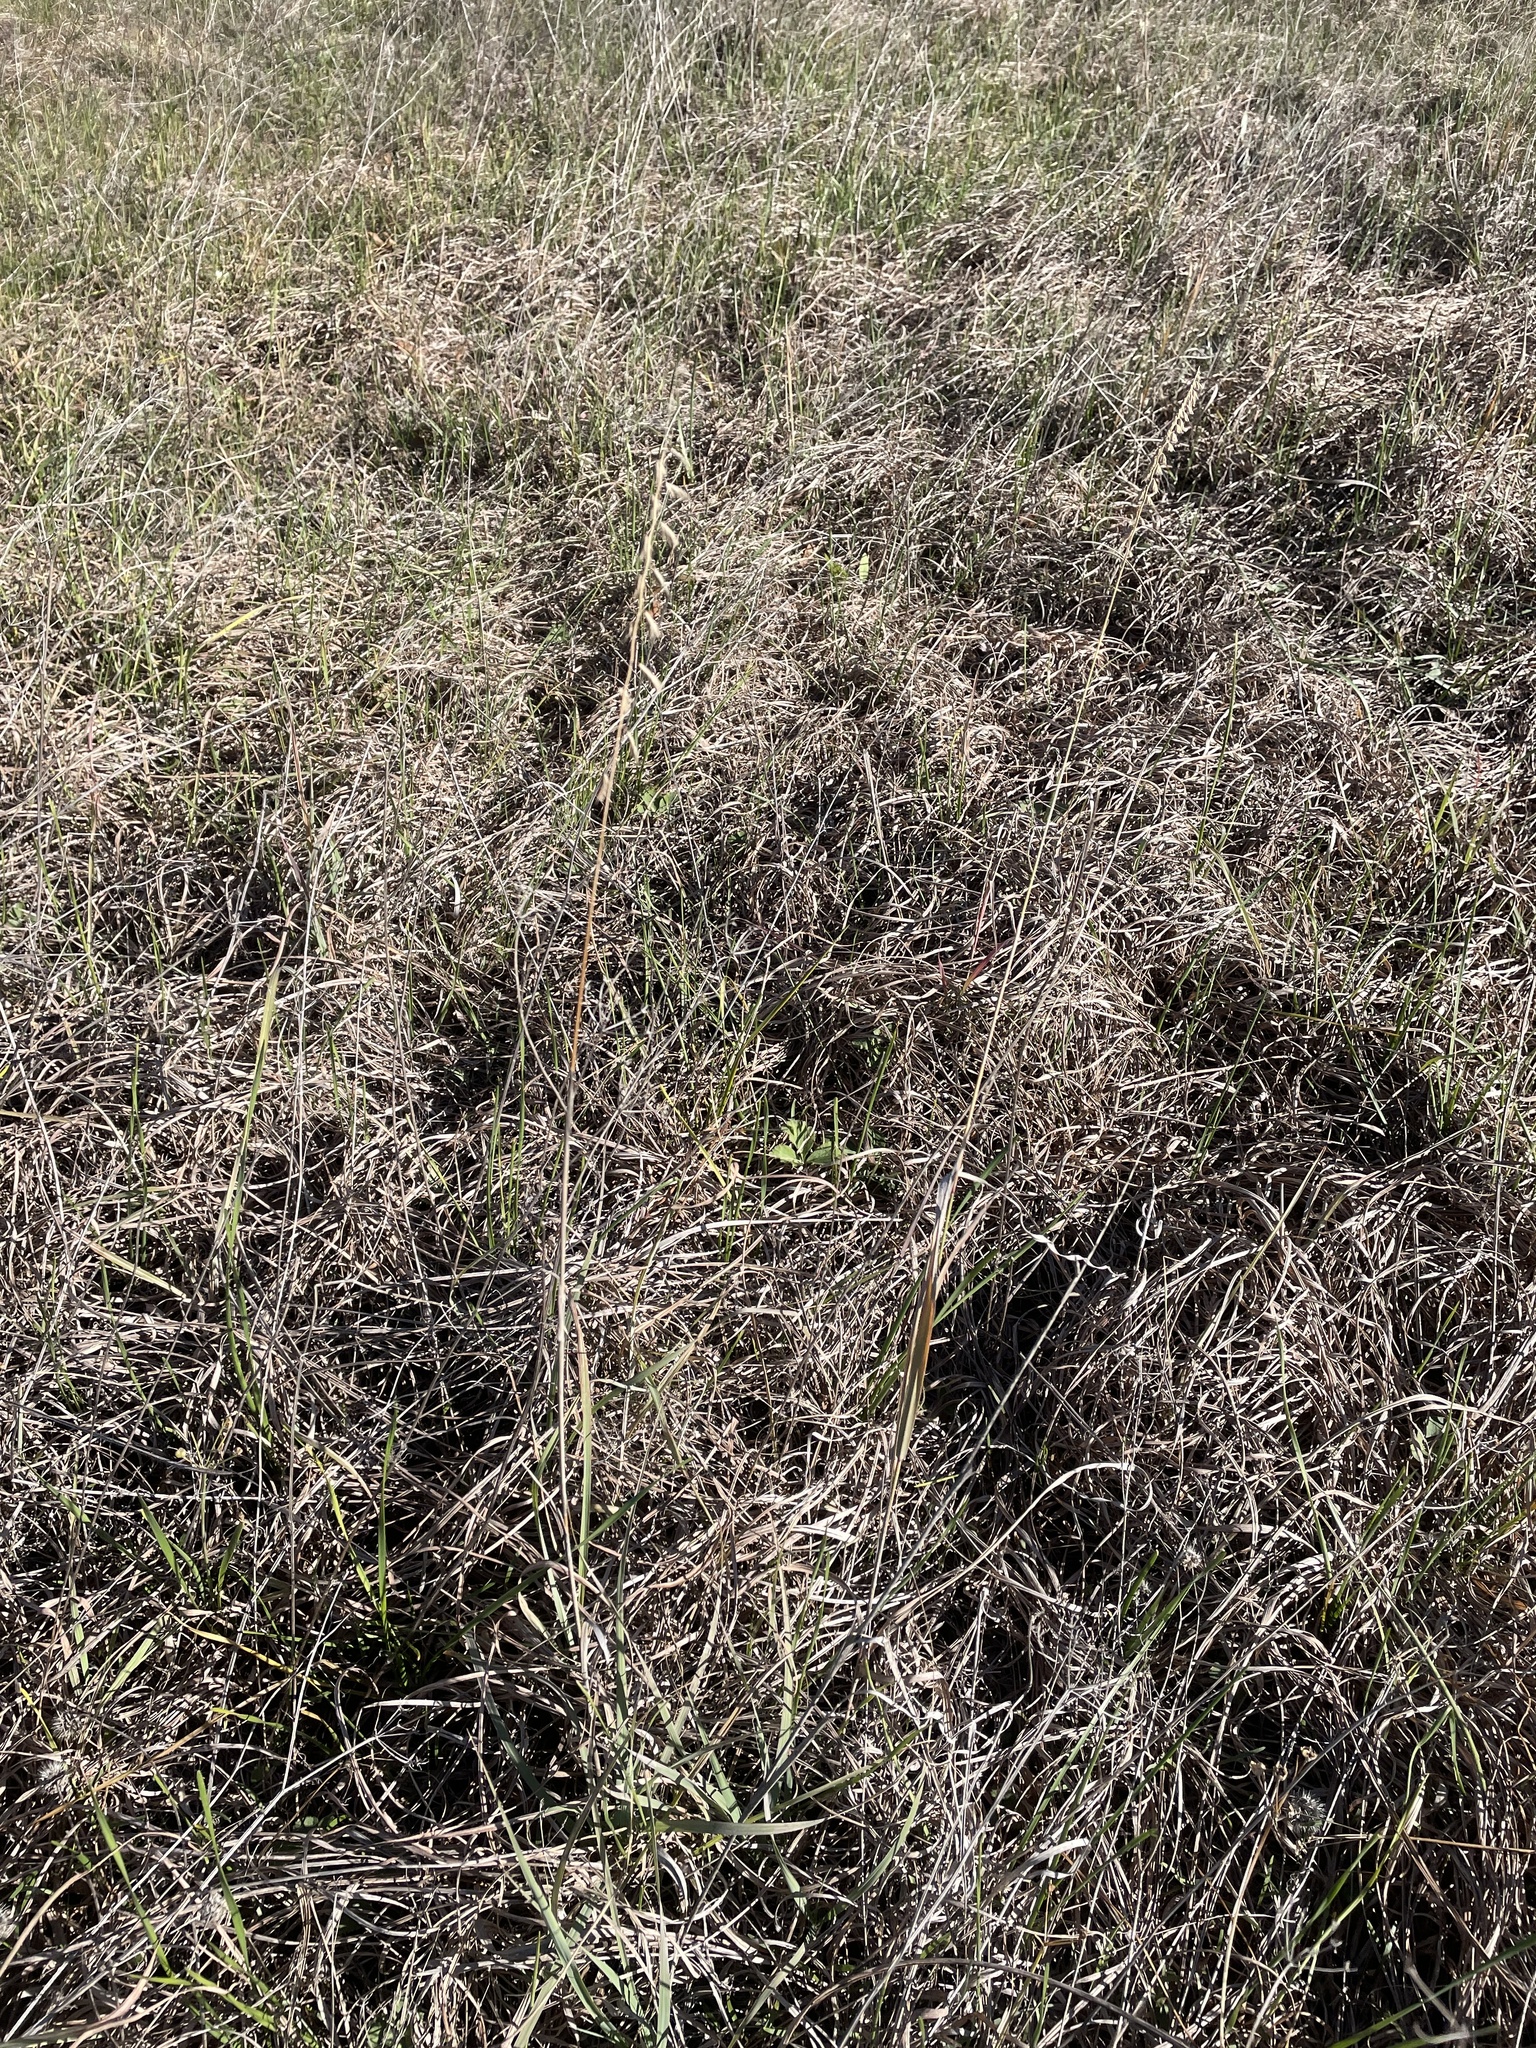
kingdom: Plantae
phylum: Tracheophyta
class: Liliopsida
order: Poales
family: Poaceae
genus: Bouteloua
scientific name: Bouteloua curtipendula
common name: Side-oats grama
